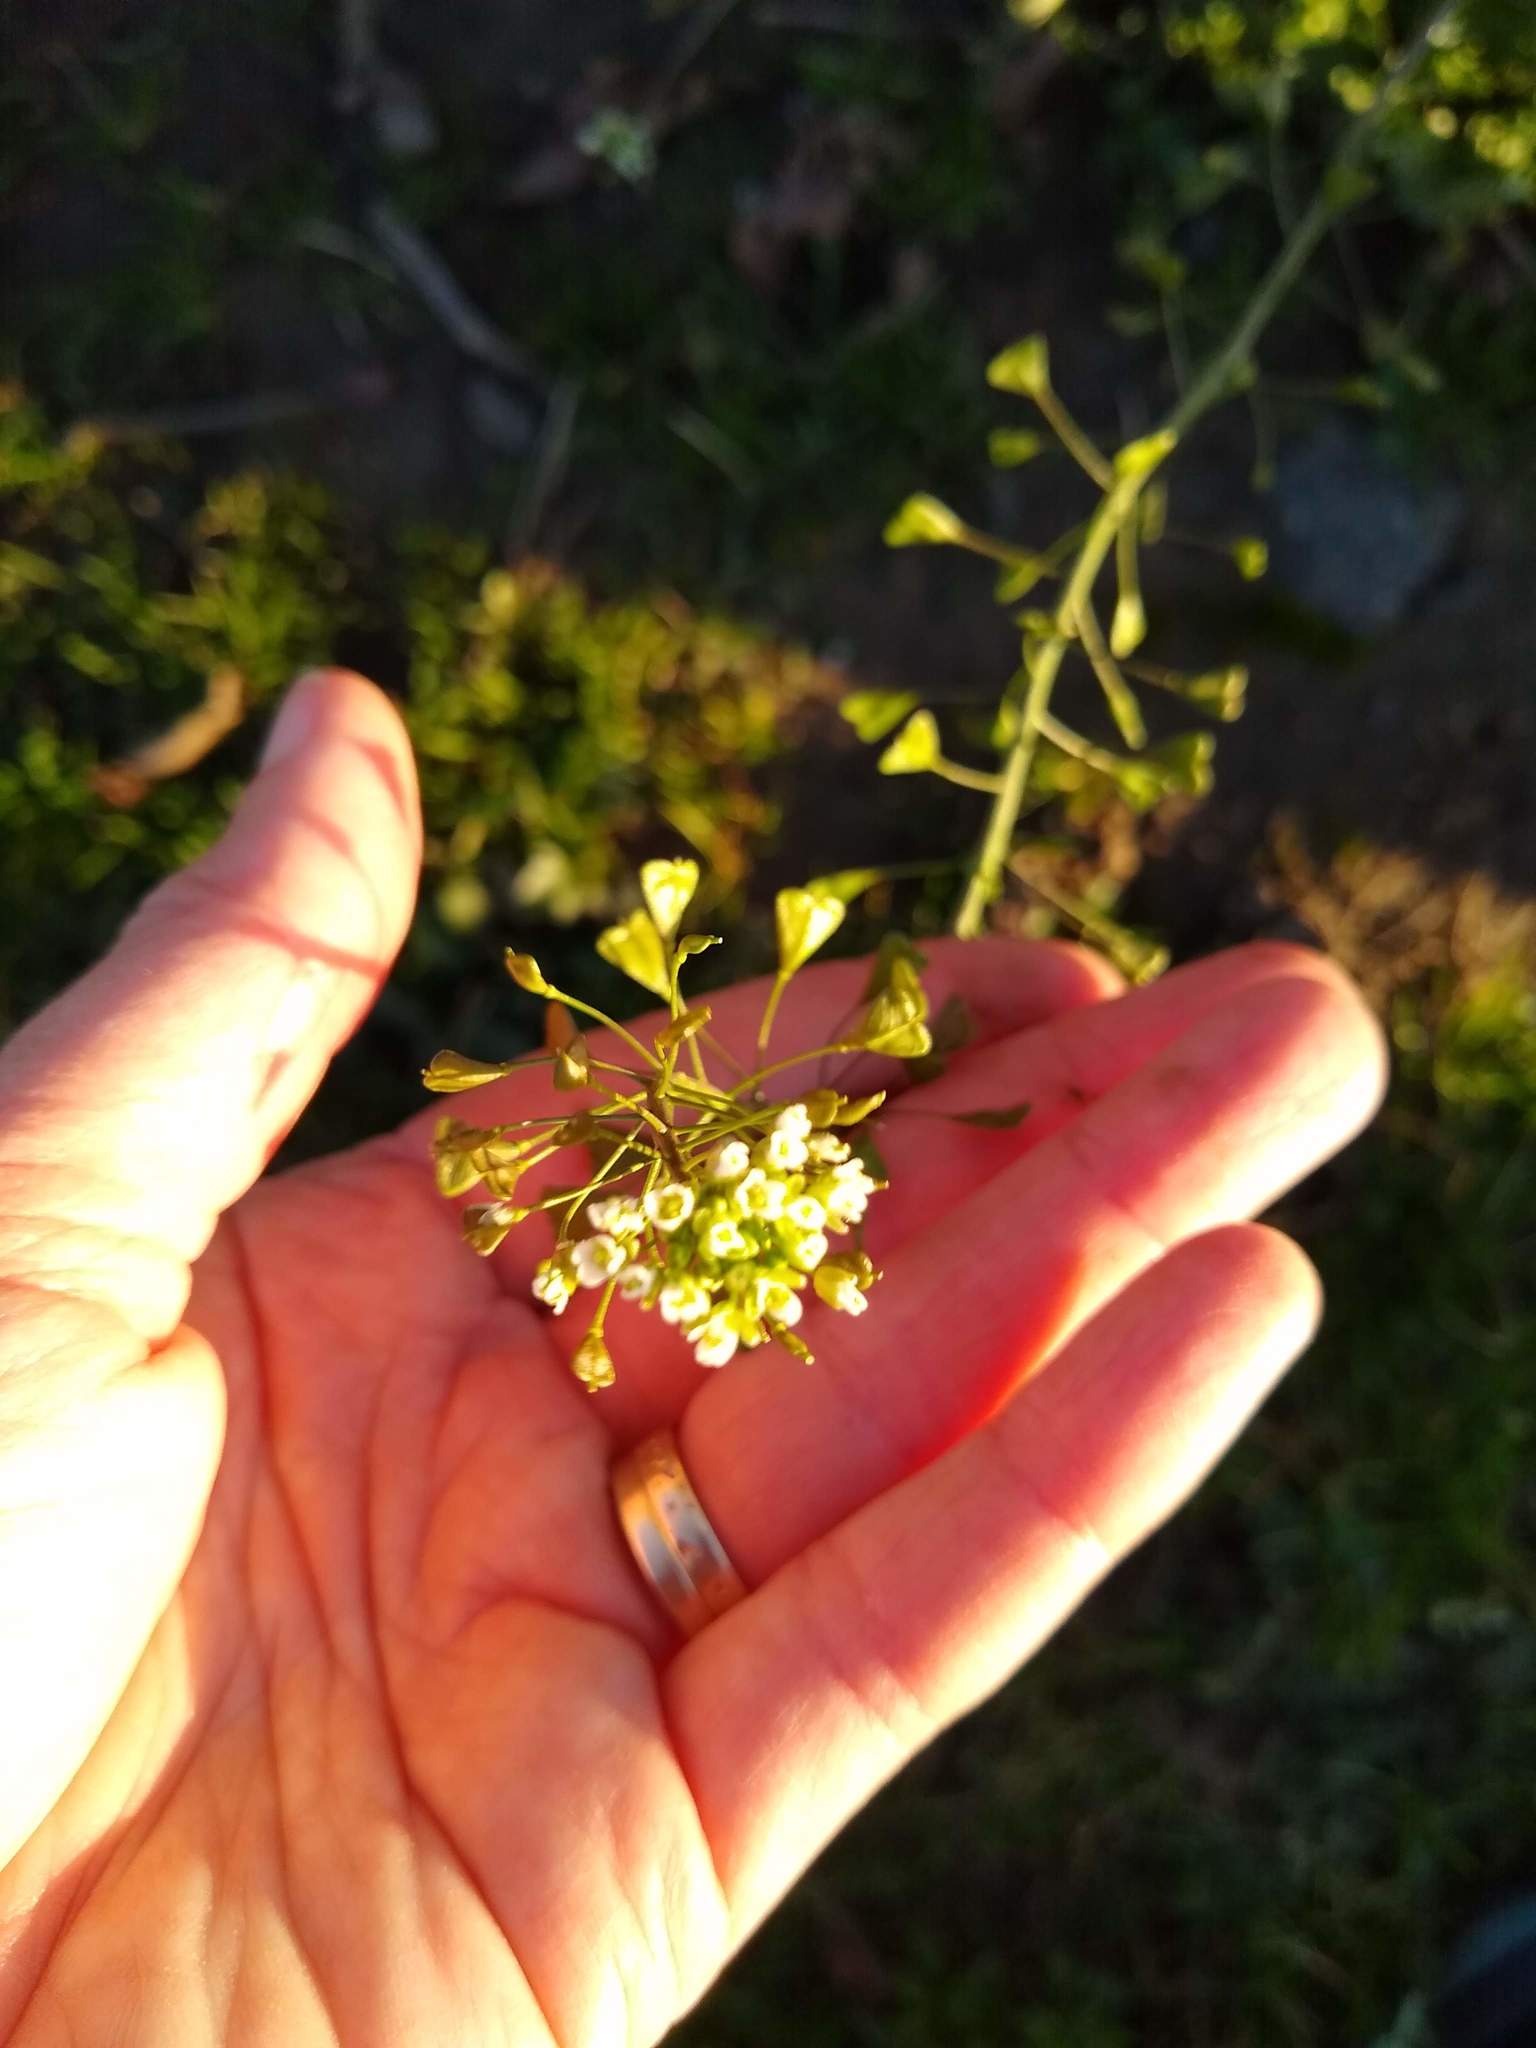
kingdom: Plantae
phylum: Tracheophyta
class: Magnoliopsida
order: Brassicales
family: Brassicaceae
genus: Capsella
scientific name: Capsella bursa-pastoris
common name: Shepherd's purse
